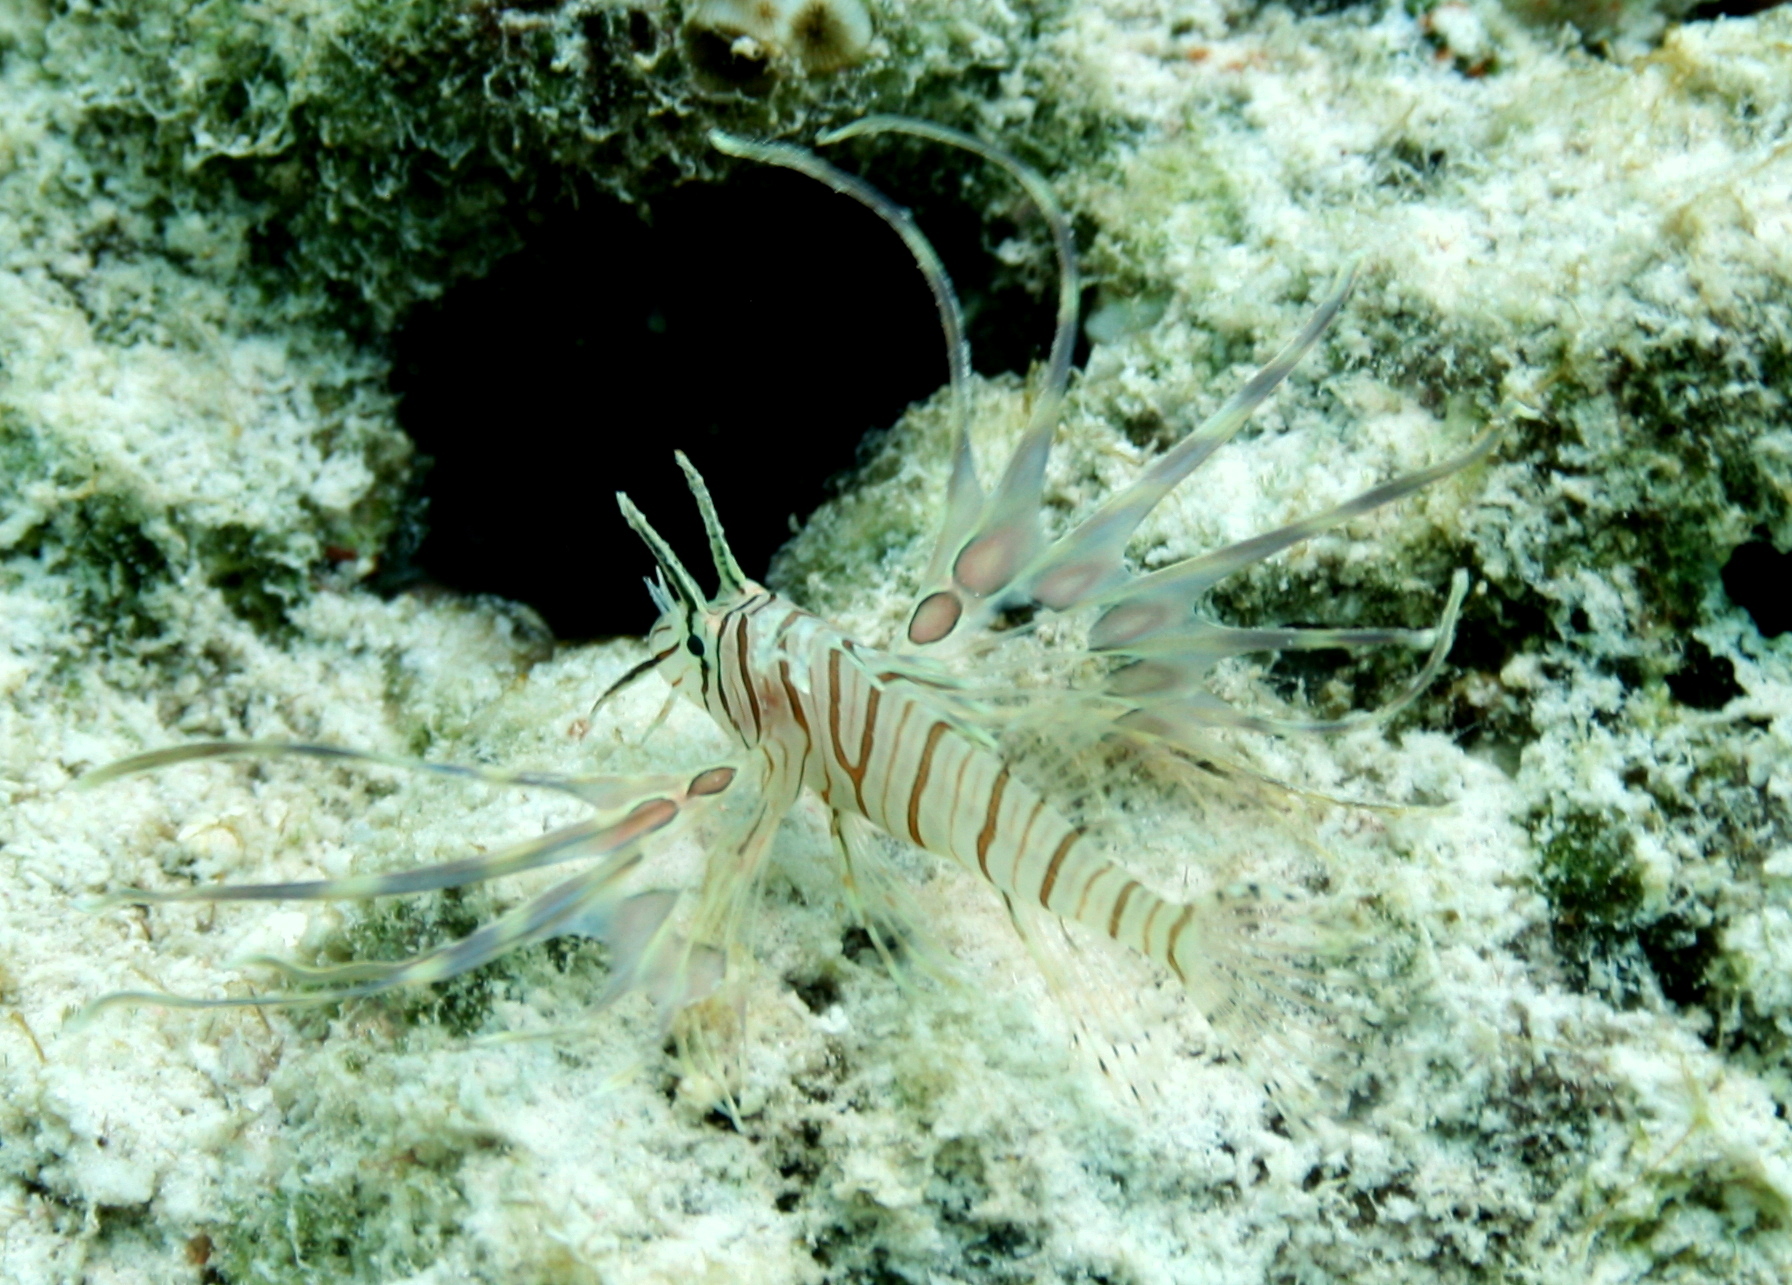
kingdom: Animalia
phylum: Chordata
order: Scorpaeniformes
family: Scorpaenidae
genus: Pterois
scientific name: Pterois volitans
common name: Lionfish
